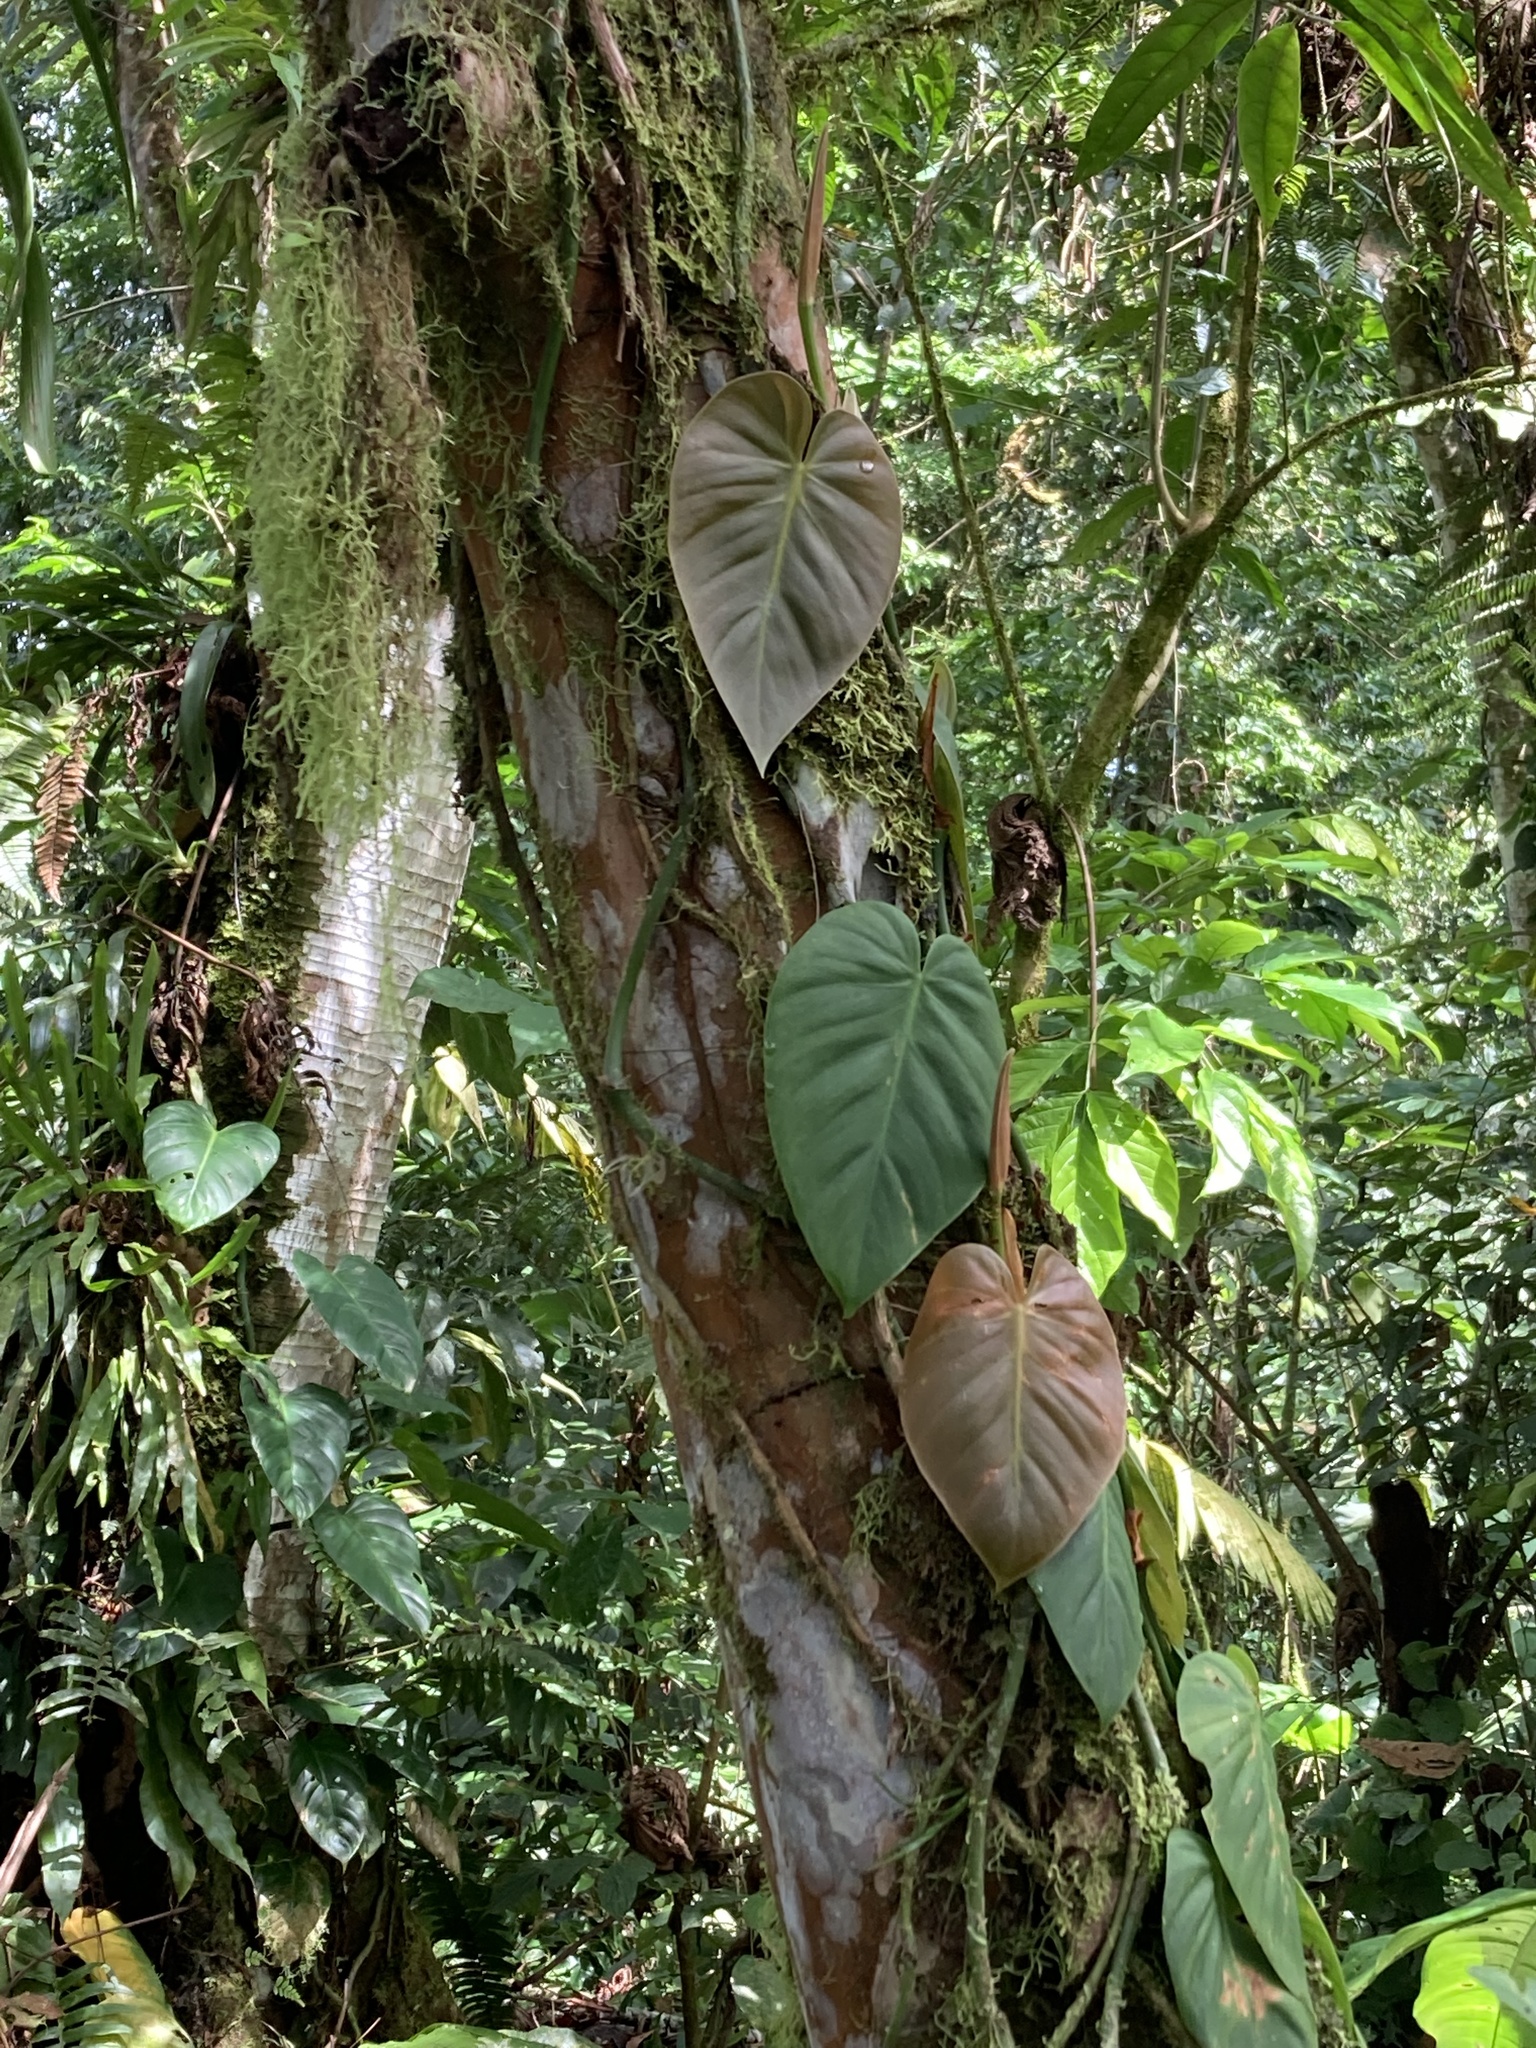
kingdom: Plantae
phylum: Tracheophyta
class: Liliopsida
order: Alismatales
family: Araceae
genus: Philodendron
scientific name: Philodendron hederaceum
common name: Vilevine
